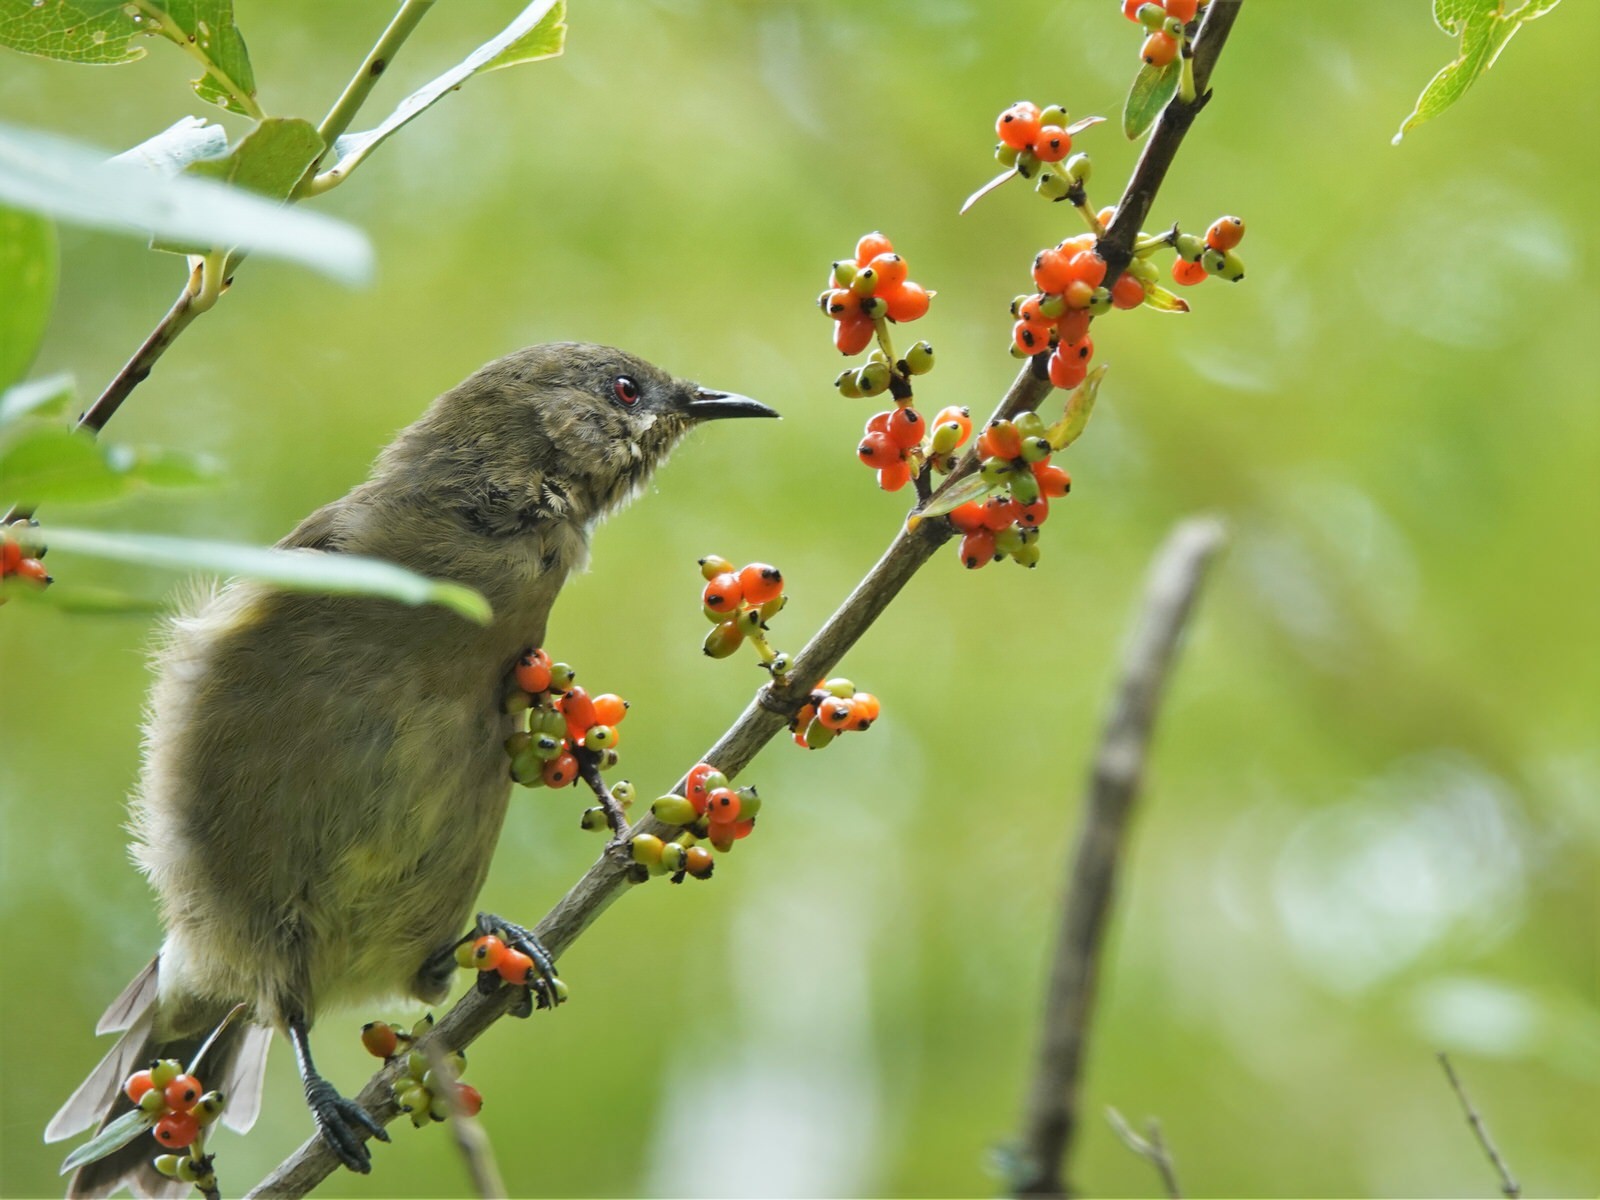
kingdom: Animalia
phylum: Chordata
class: Aves
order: Passeriformes
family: Meliphagidae
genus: Anthornis
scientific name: Anthornis melanura
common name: New zealand bellbird
